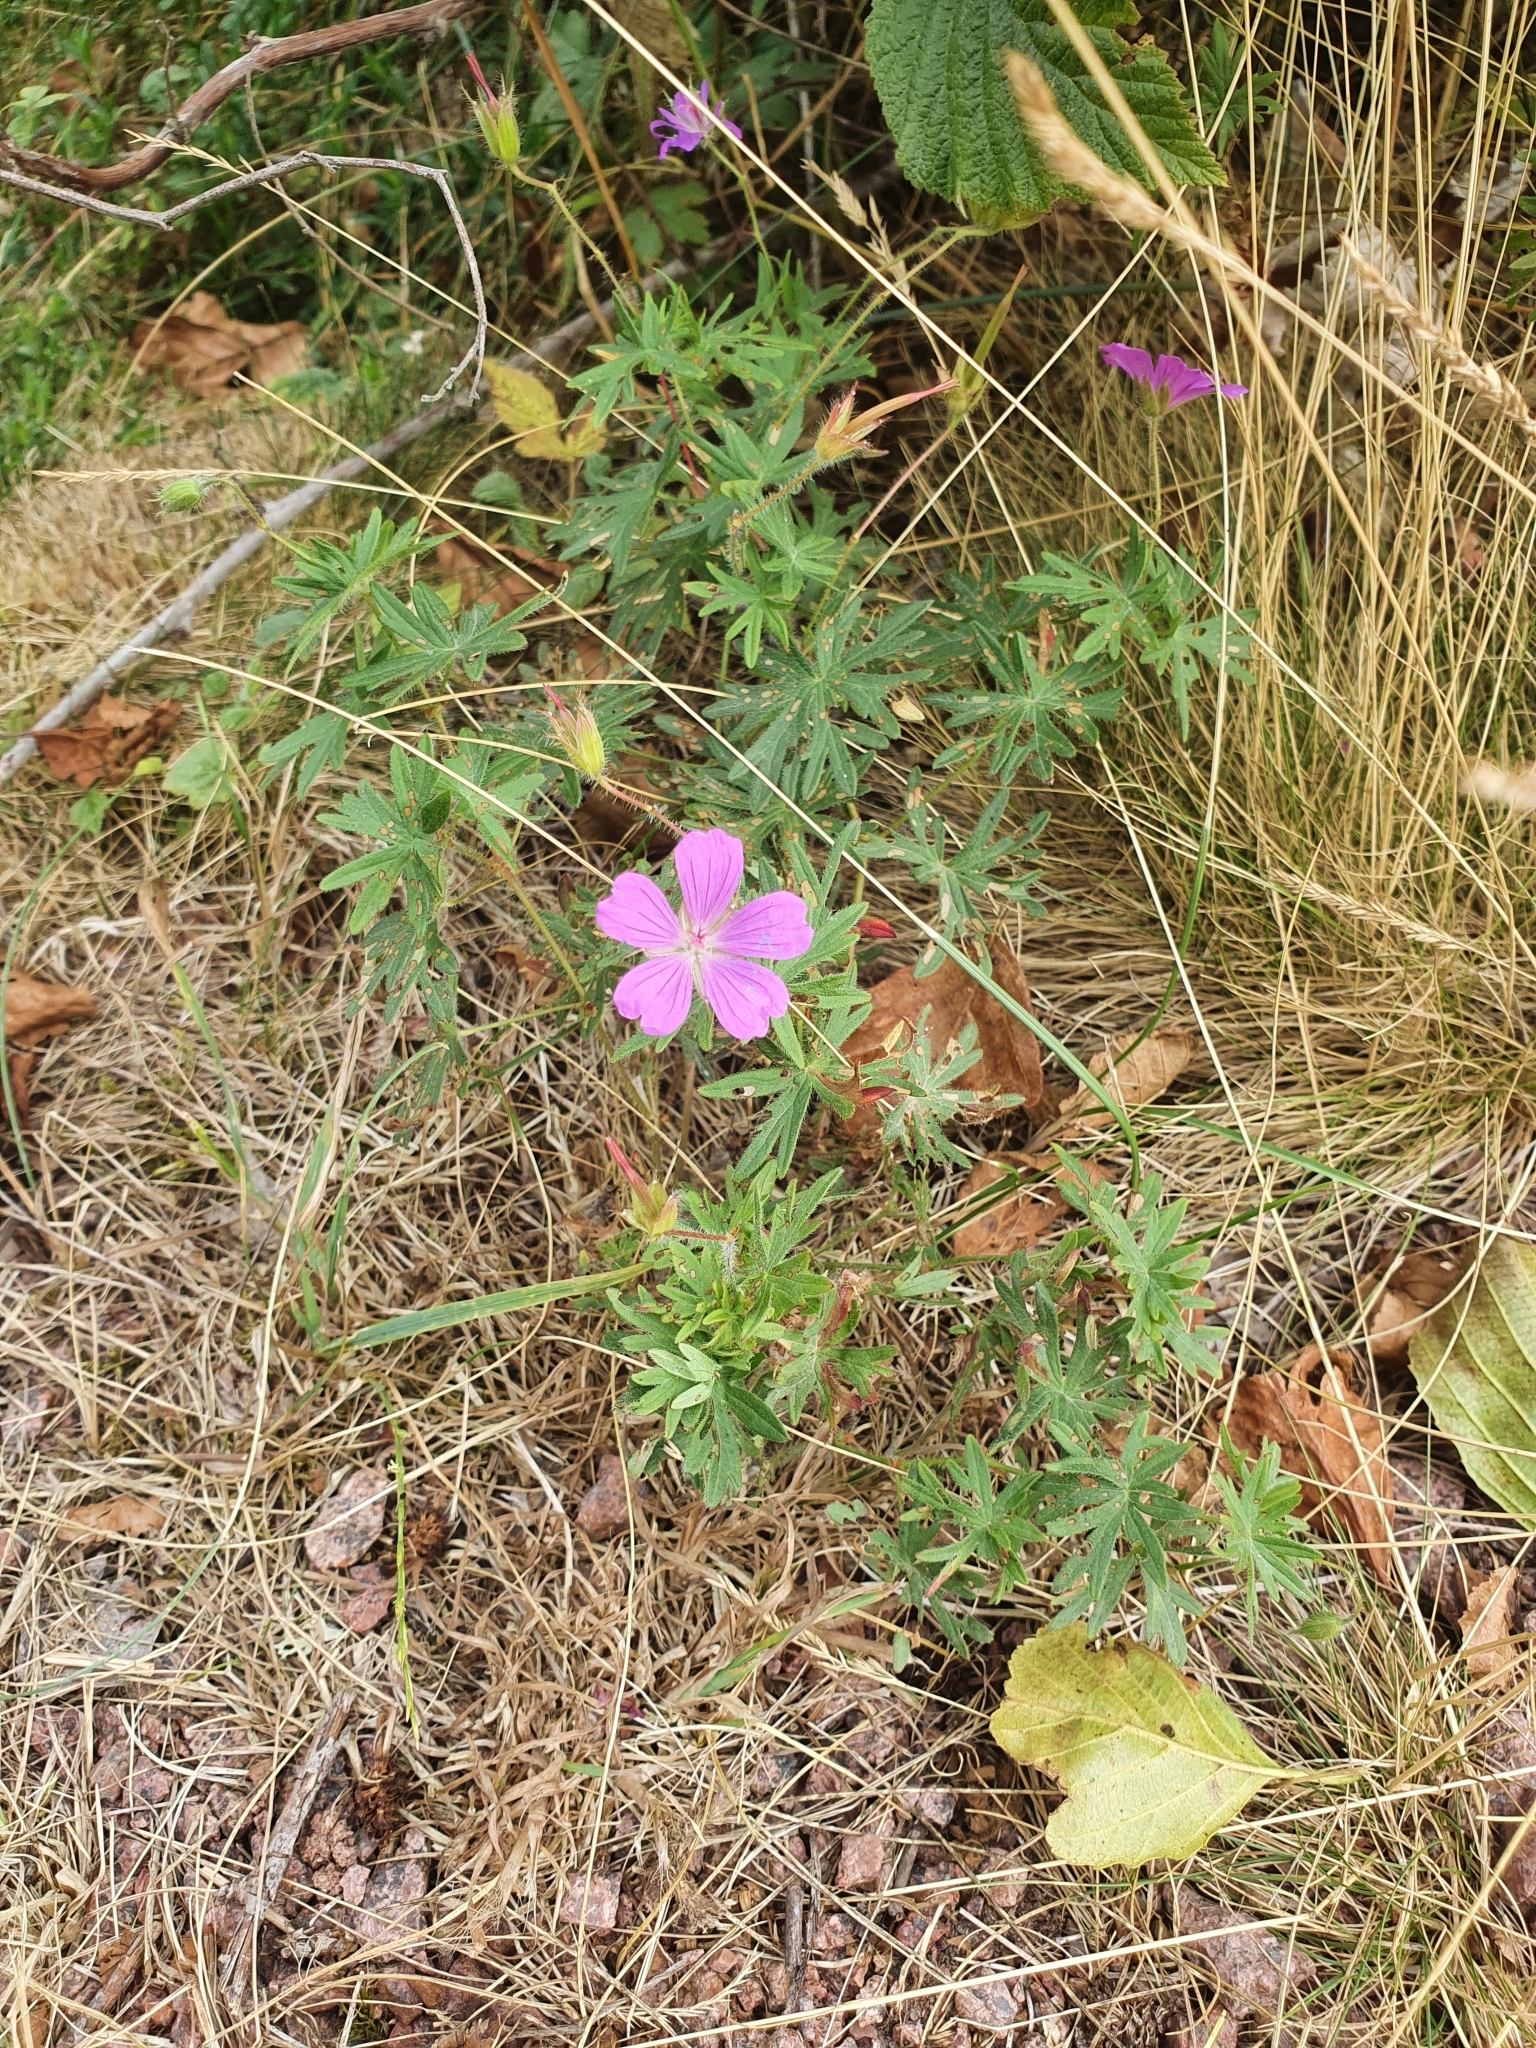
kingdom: Plantae
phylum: Tracheophyta
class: Magnoliopsida
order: Geraniales
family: Geraniaceae
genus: Geranium
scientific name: Geranium sanguineum
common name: Bloody crane's-bill
